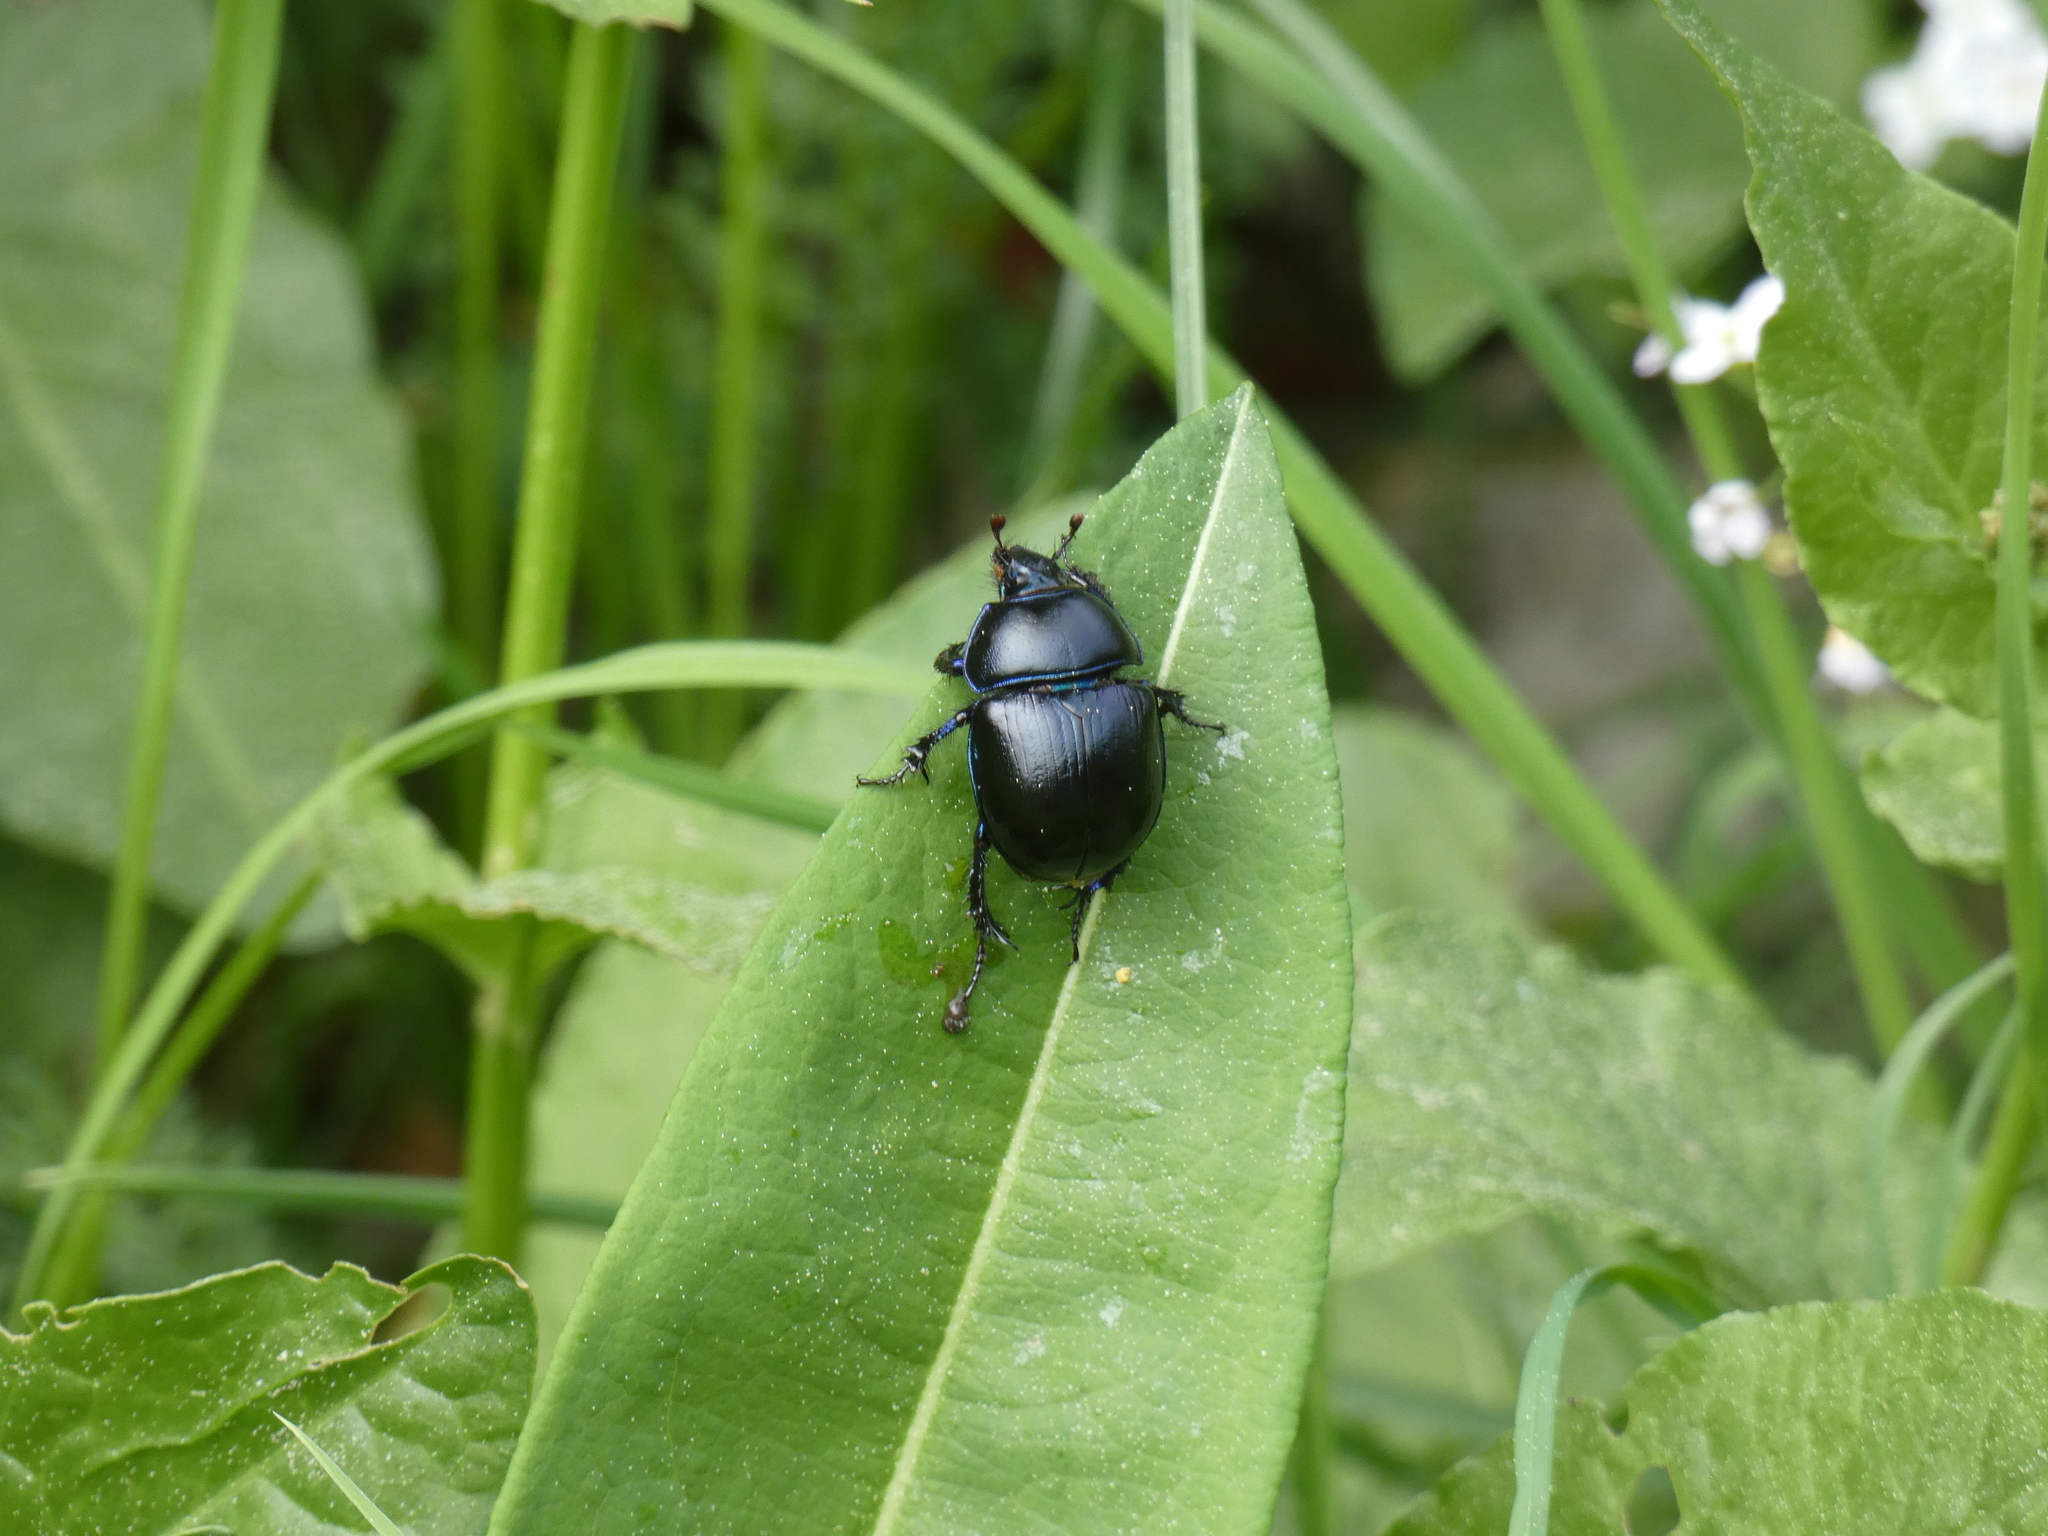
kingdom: Animalia
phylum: Arthropoda
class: Insecta
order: Coleoptera
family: Geotrupidae
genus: Anoplotrupes
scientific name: Anoplotrupes stercorosus
